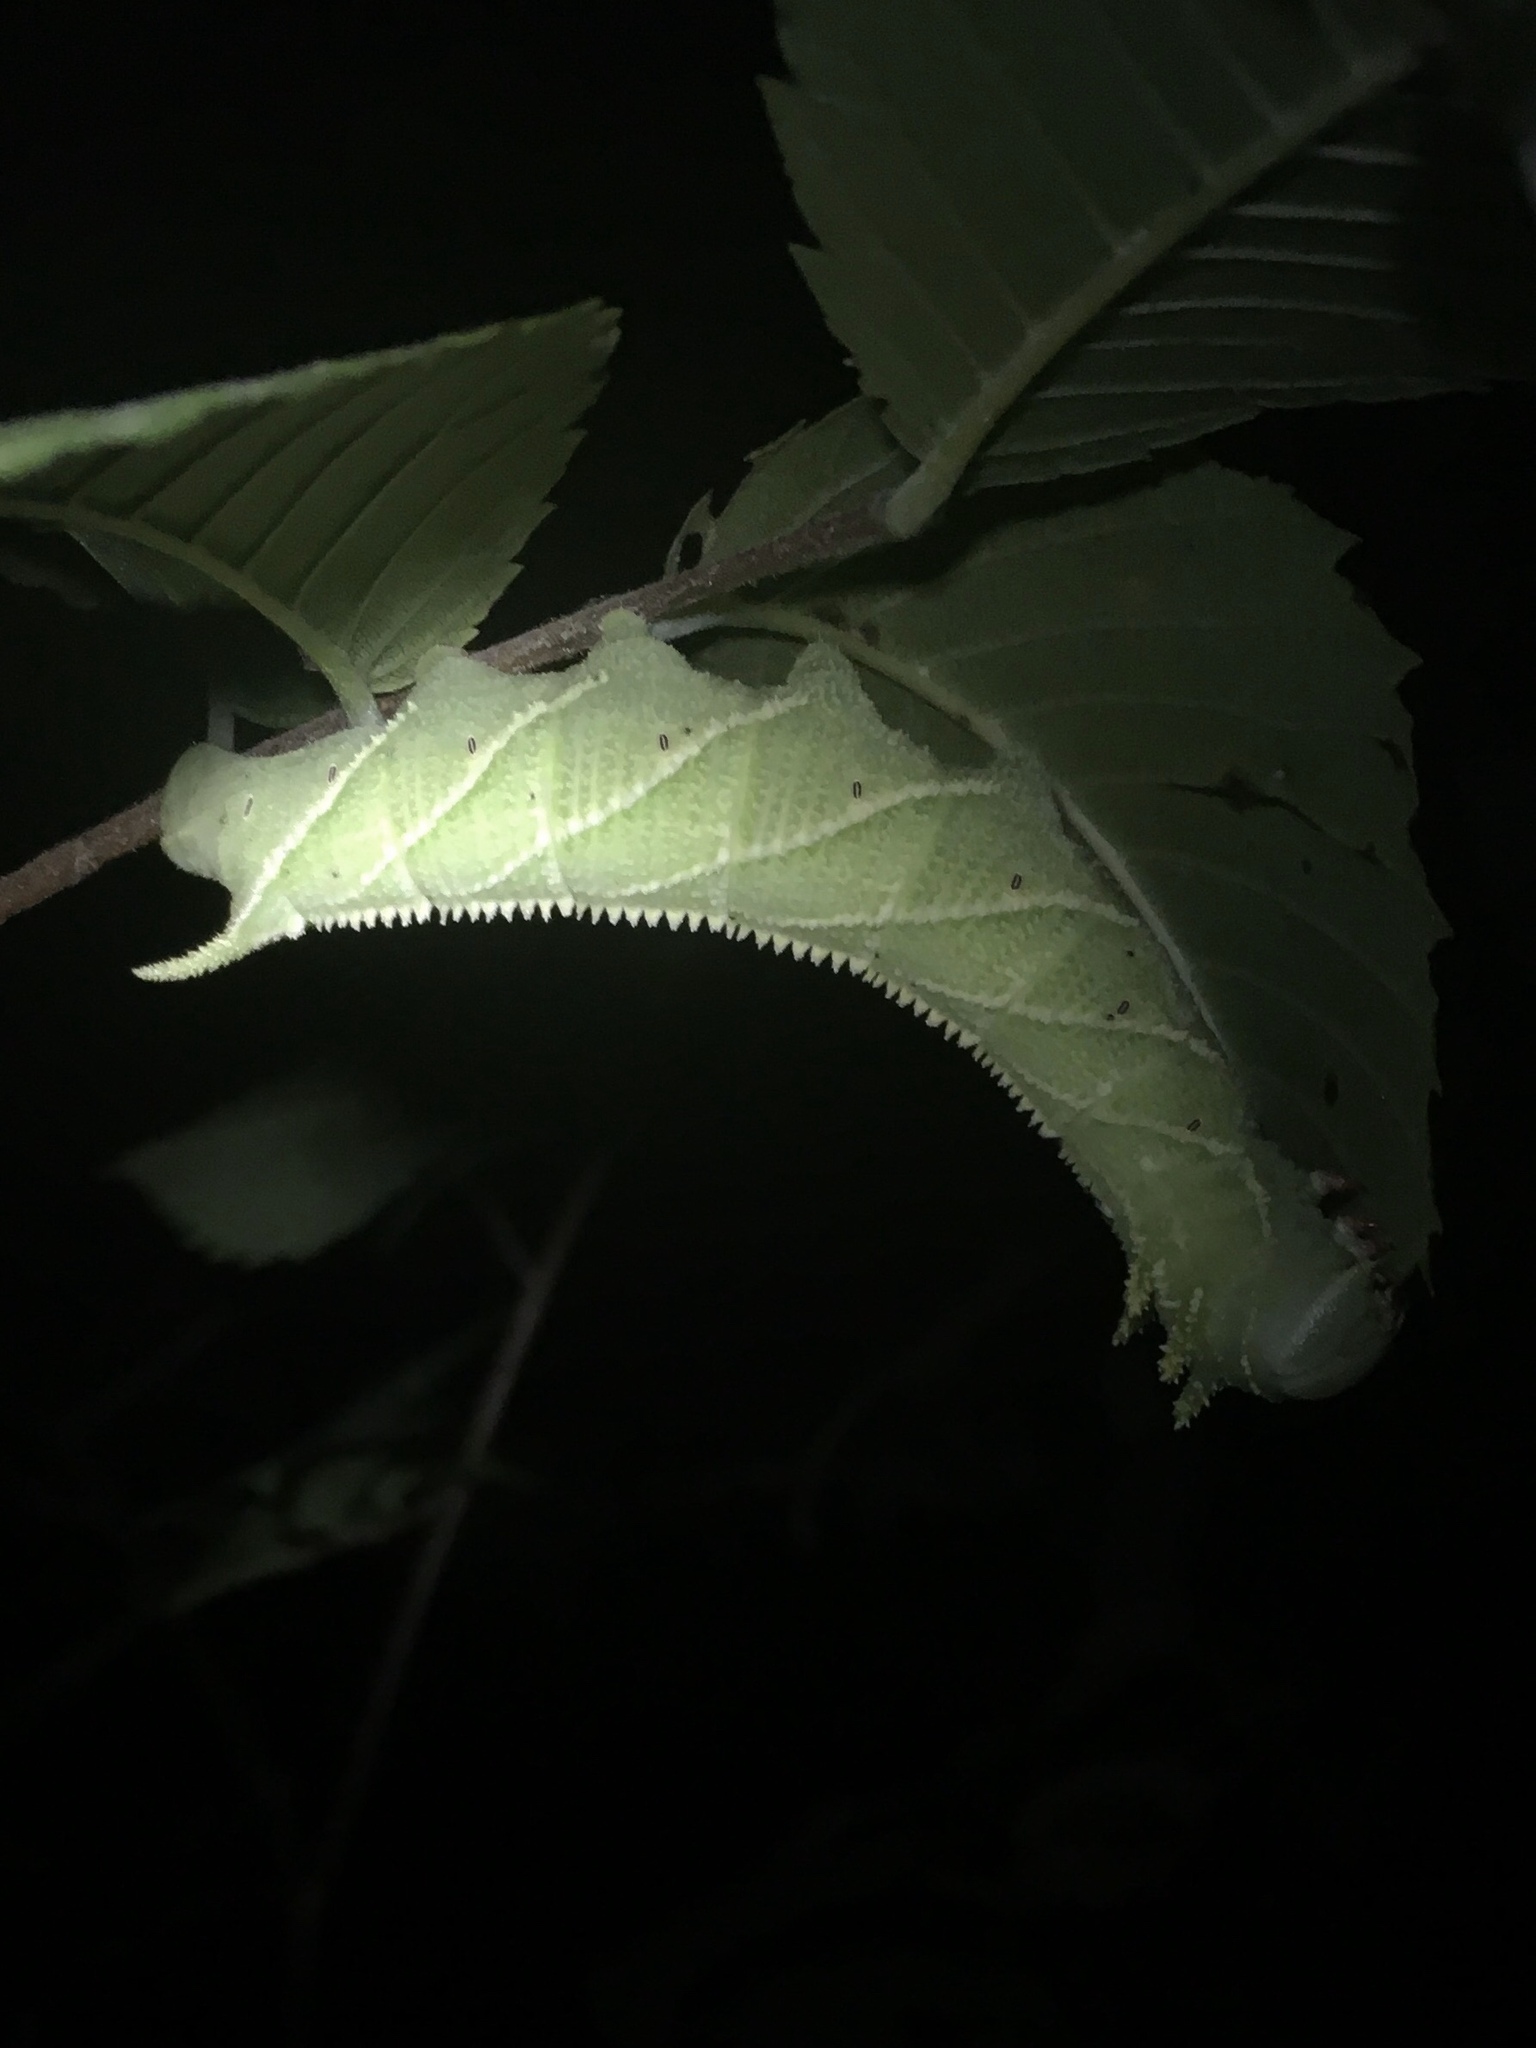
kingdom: Animalia
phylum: Arthropoda
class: Insecta
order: Lepidoptera
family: Sphingidae
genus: Ceratomia
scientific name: Ceratomia amyntor
